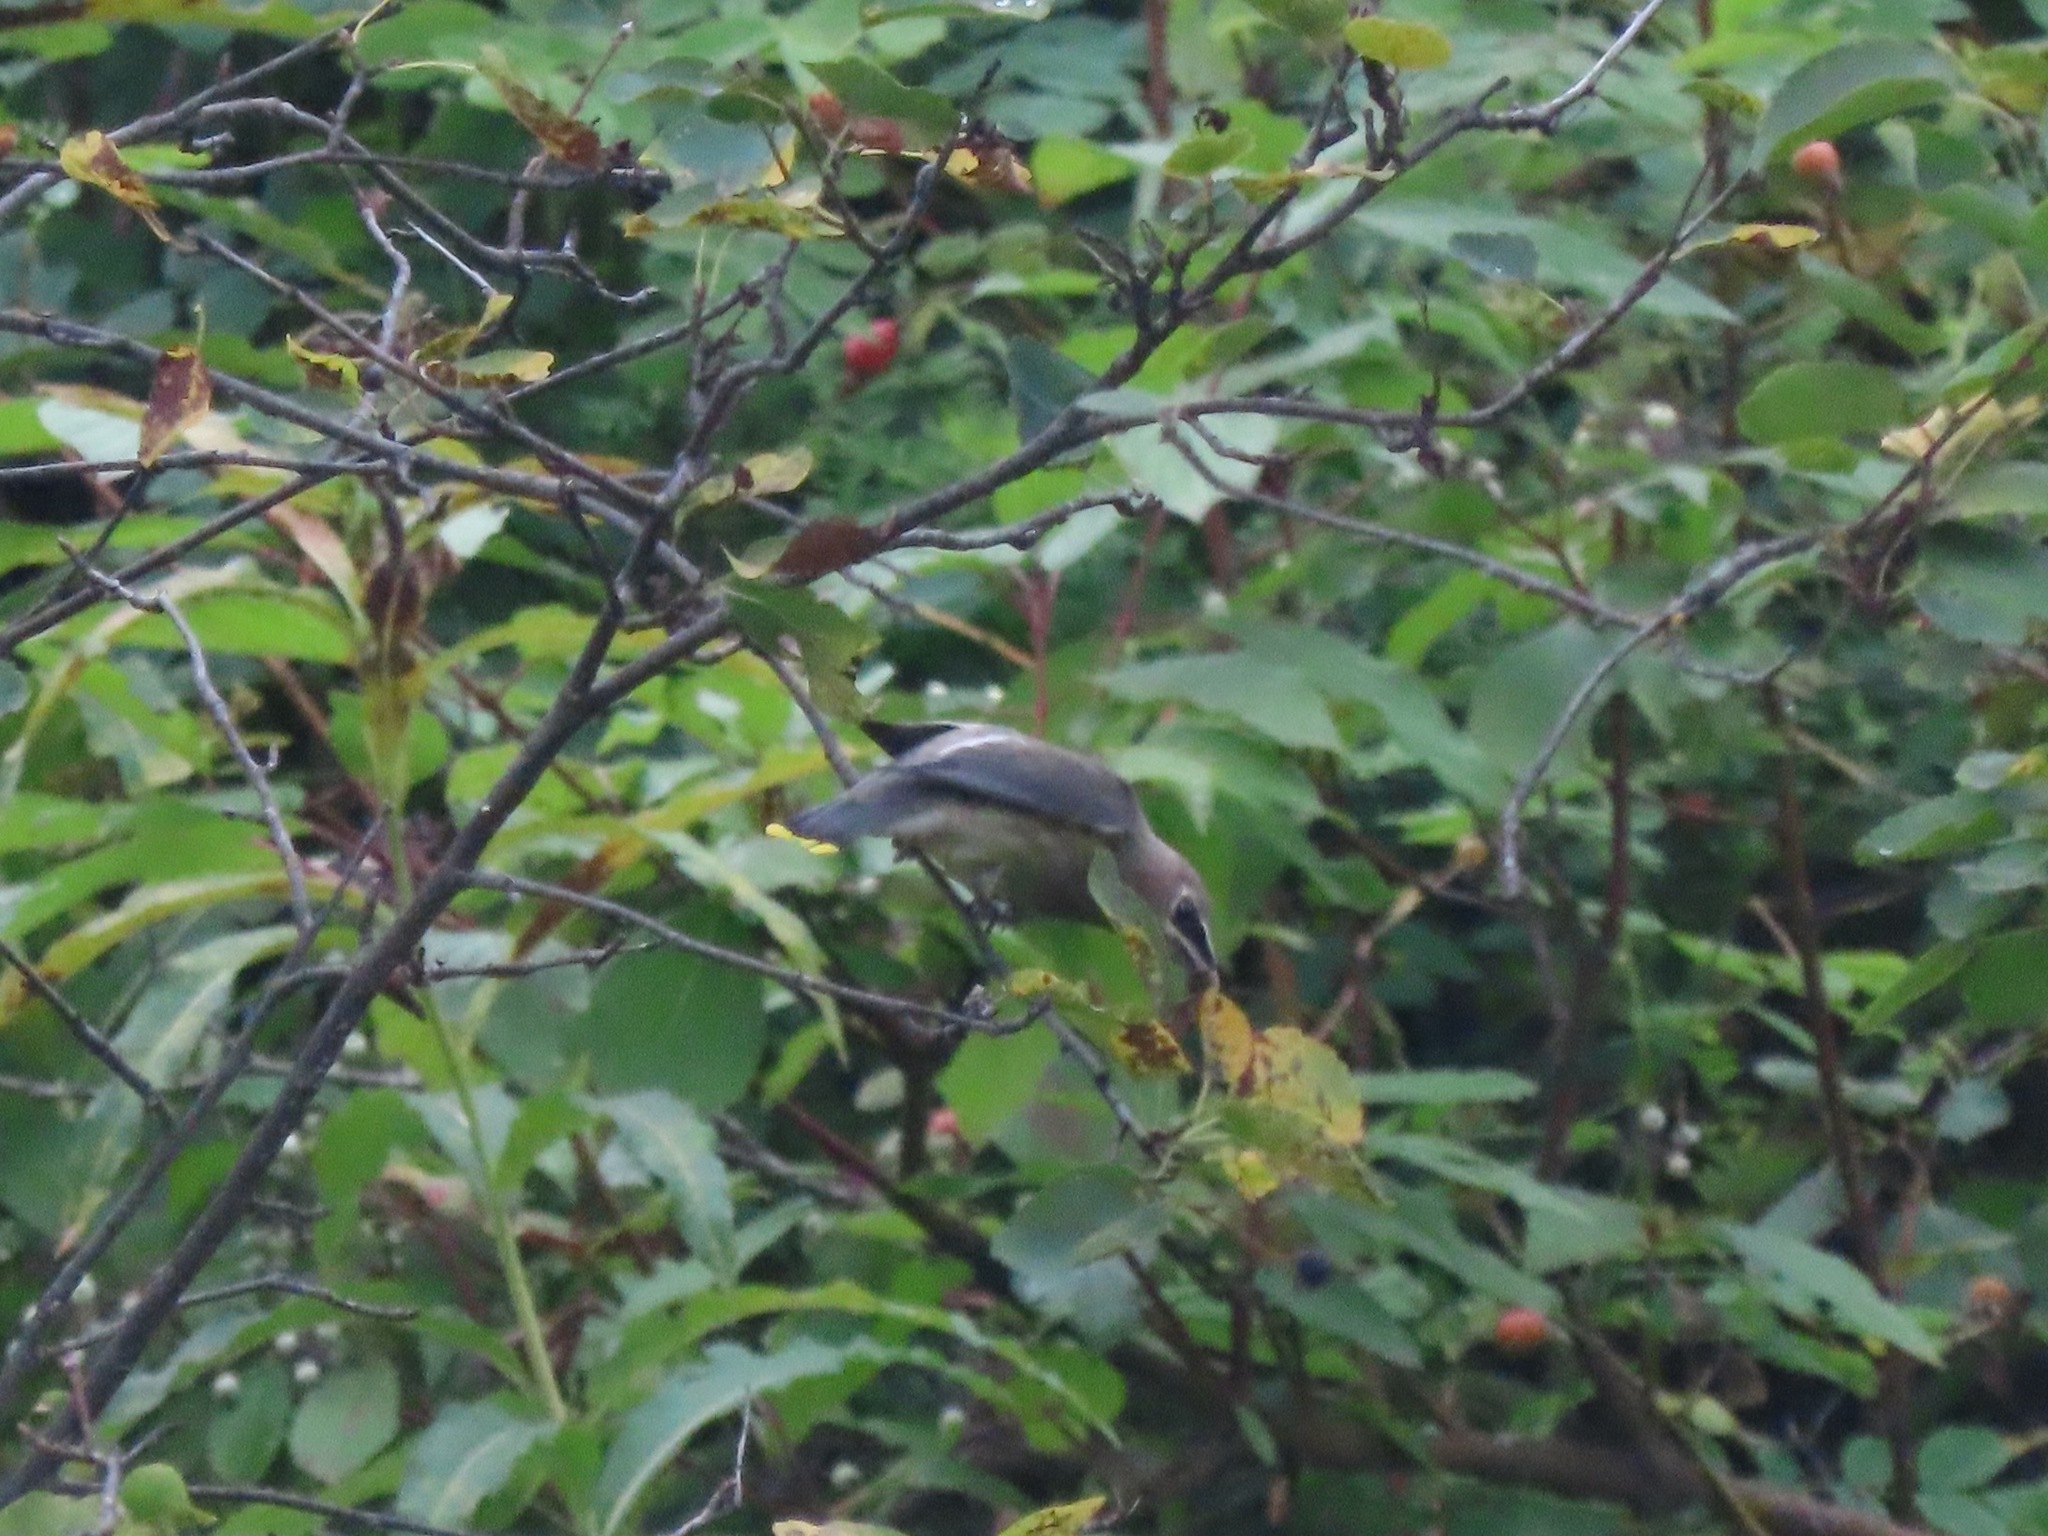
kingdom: Animalia
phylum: Chordata
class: Aves
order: Passeriformes
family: Bombycillidae
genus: Bombycilla
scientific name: Bombycilla cedrorum
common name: Cedar waxwing
